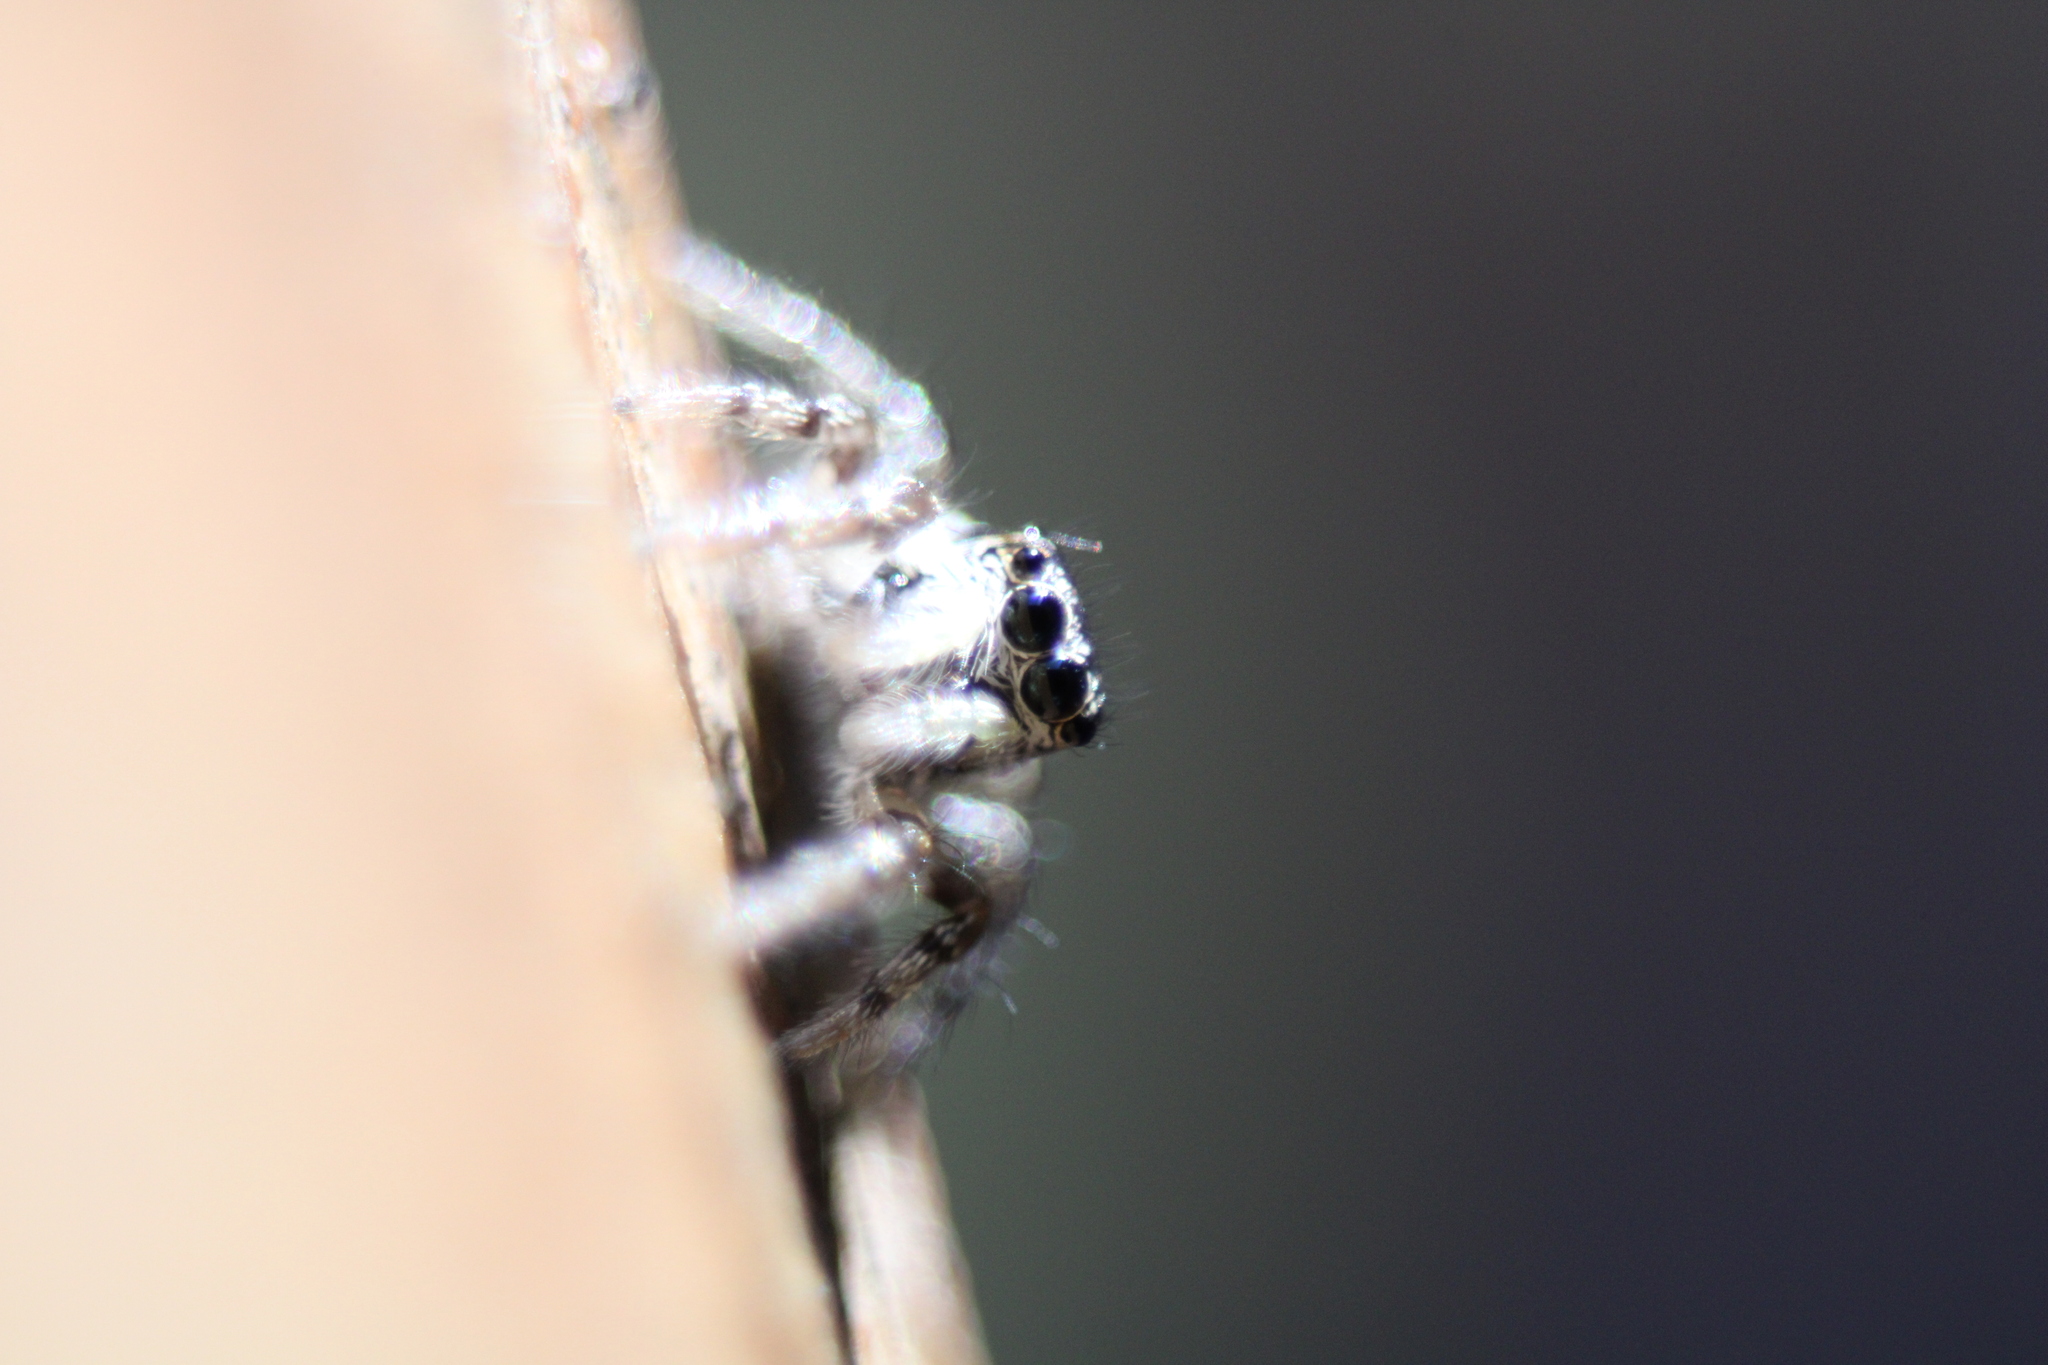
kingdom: Animalia
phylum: Arthropoda
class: Arachnida
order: Araneae
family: Salticidae
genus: Salticus
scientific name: Salticus scenicus
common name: Zebra jumper
